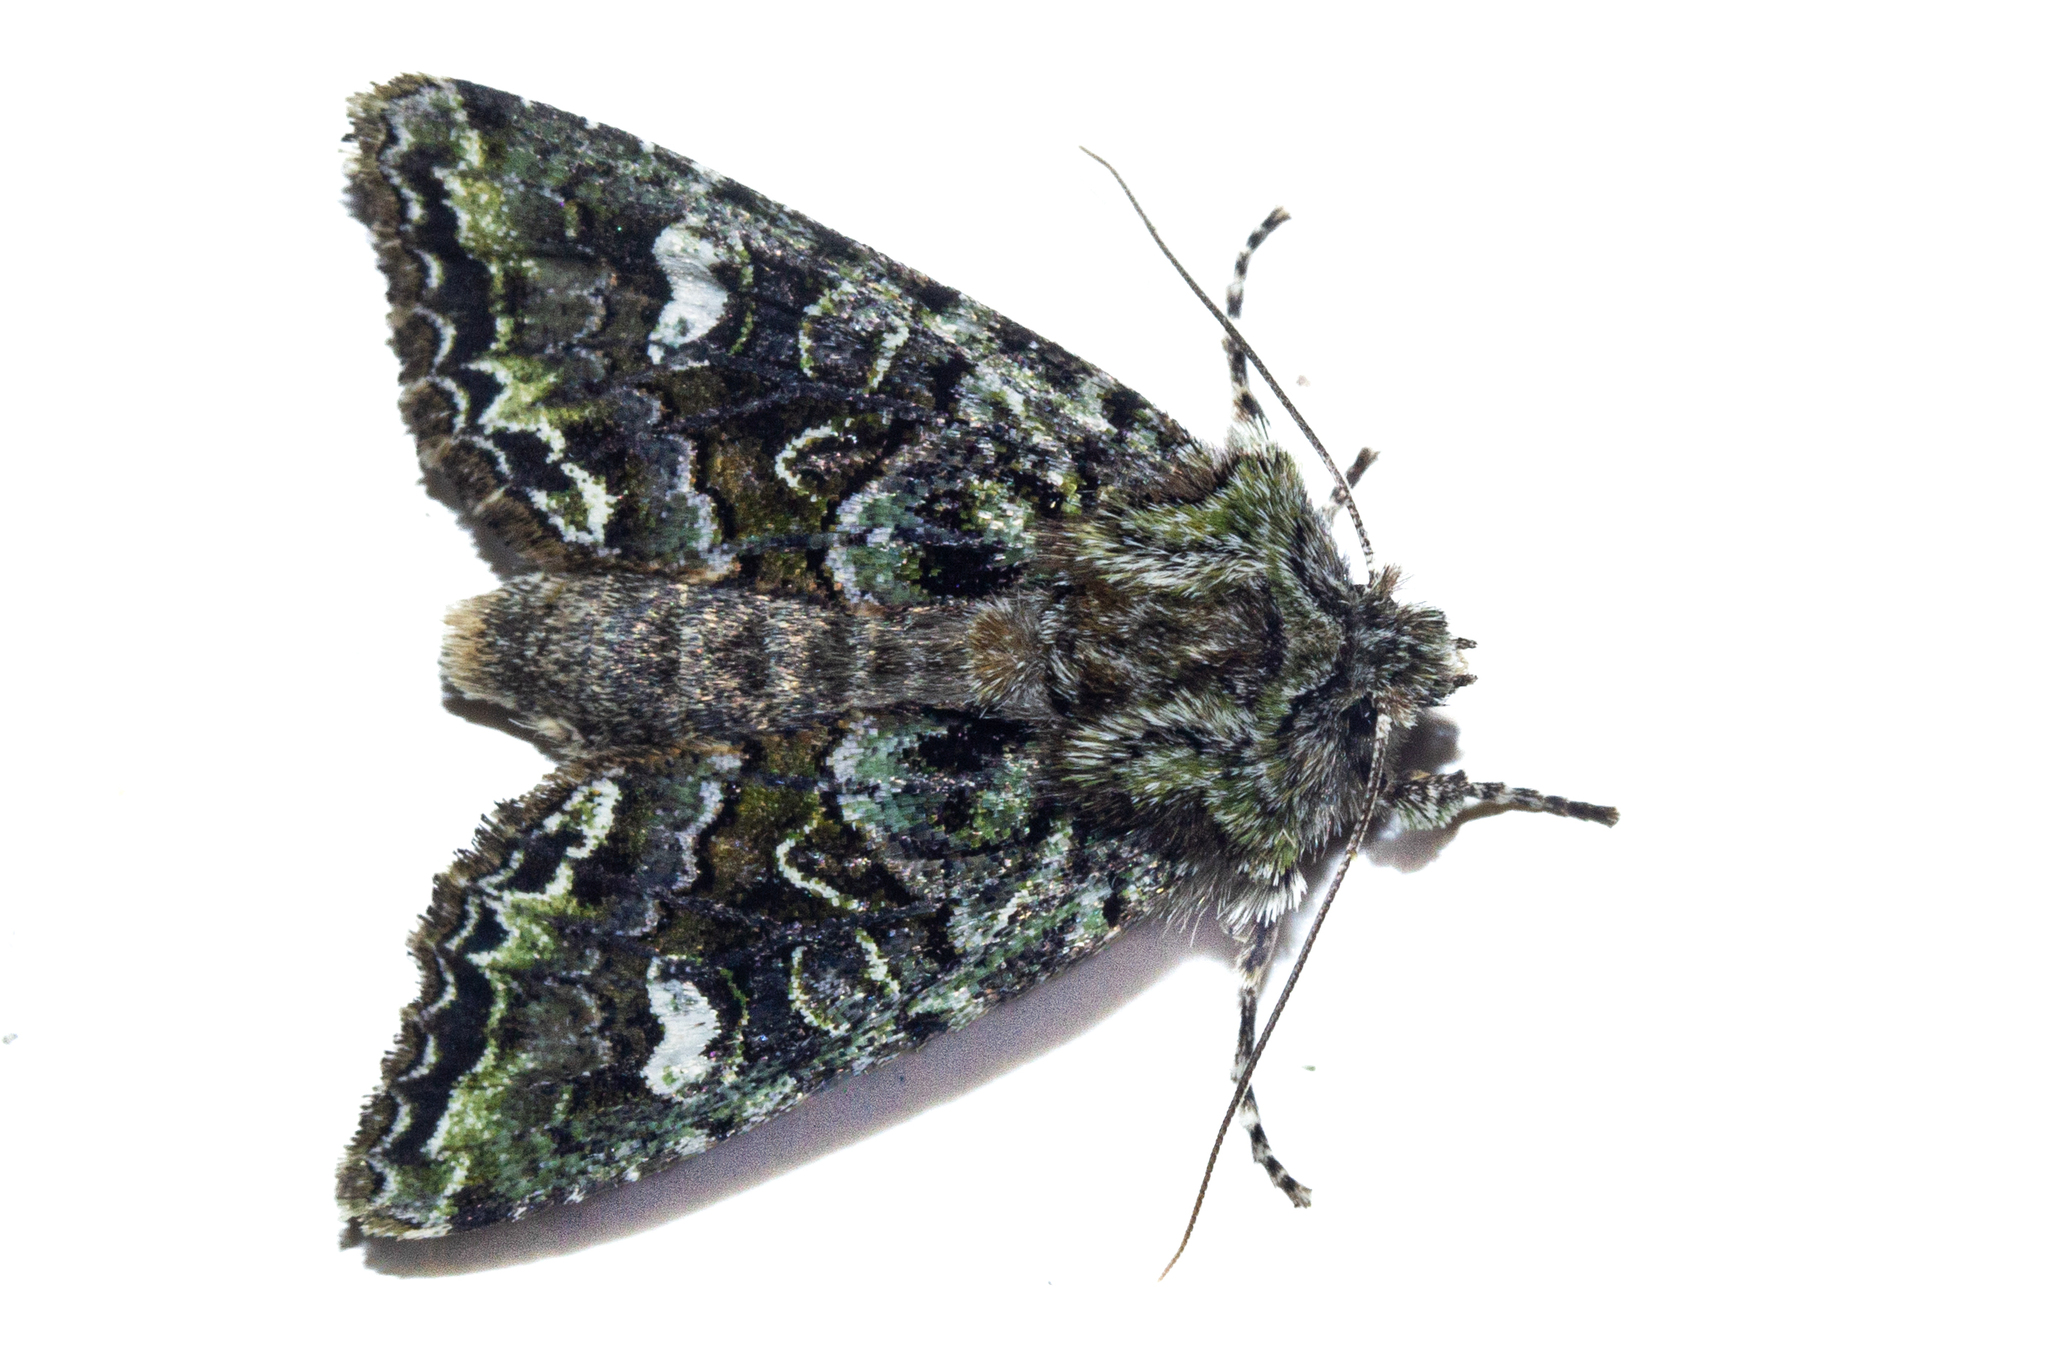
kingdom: Animalia
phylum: Arthropoda
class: Insecta
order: Lepidoptera
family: Noctuidae
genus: Ichneutica
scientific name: Ichneutica
